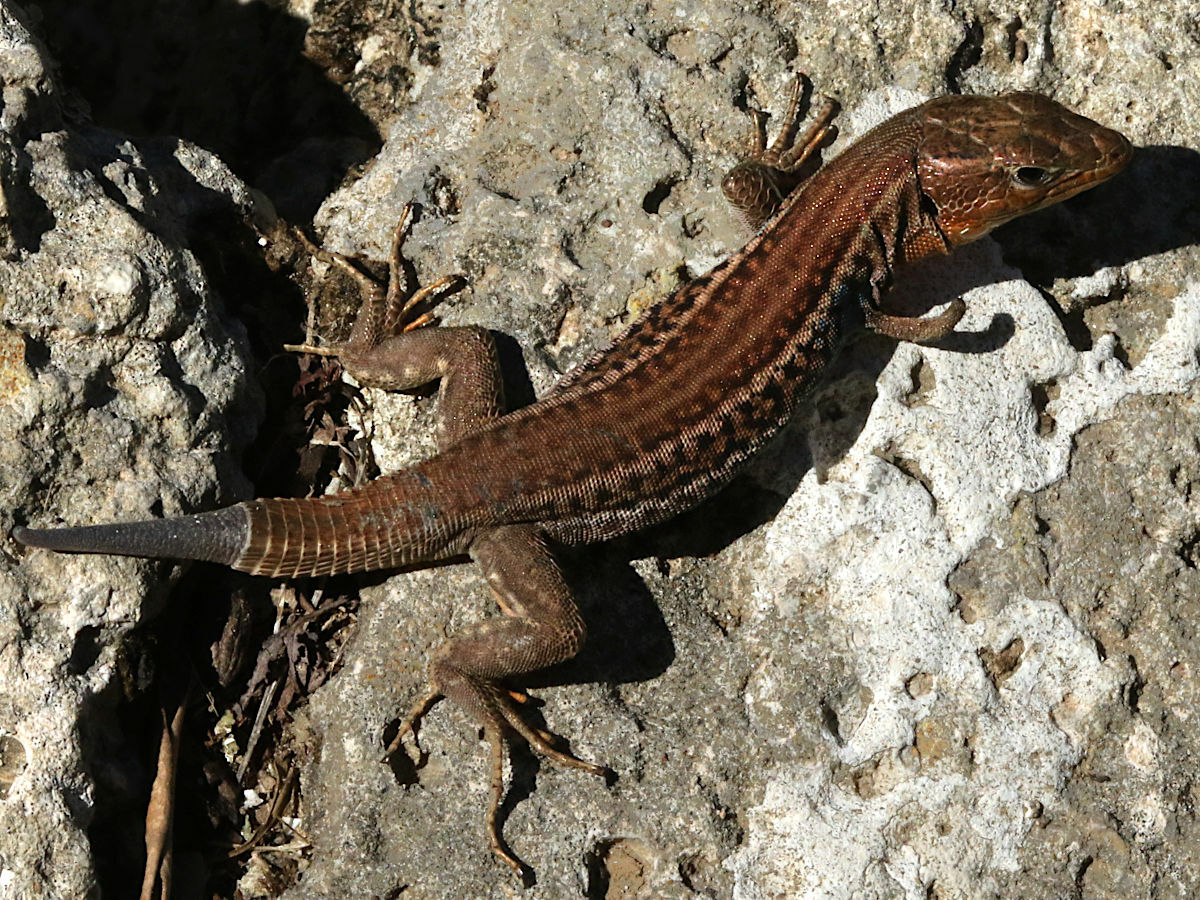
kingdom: Animalia
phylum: Chordata
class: Squamata
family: Lacertidae
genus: Podarcis
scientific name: Podarcis peloponnesiacus
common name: Peloponnese wall lizard
